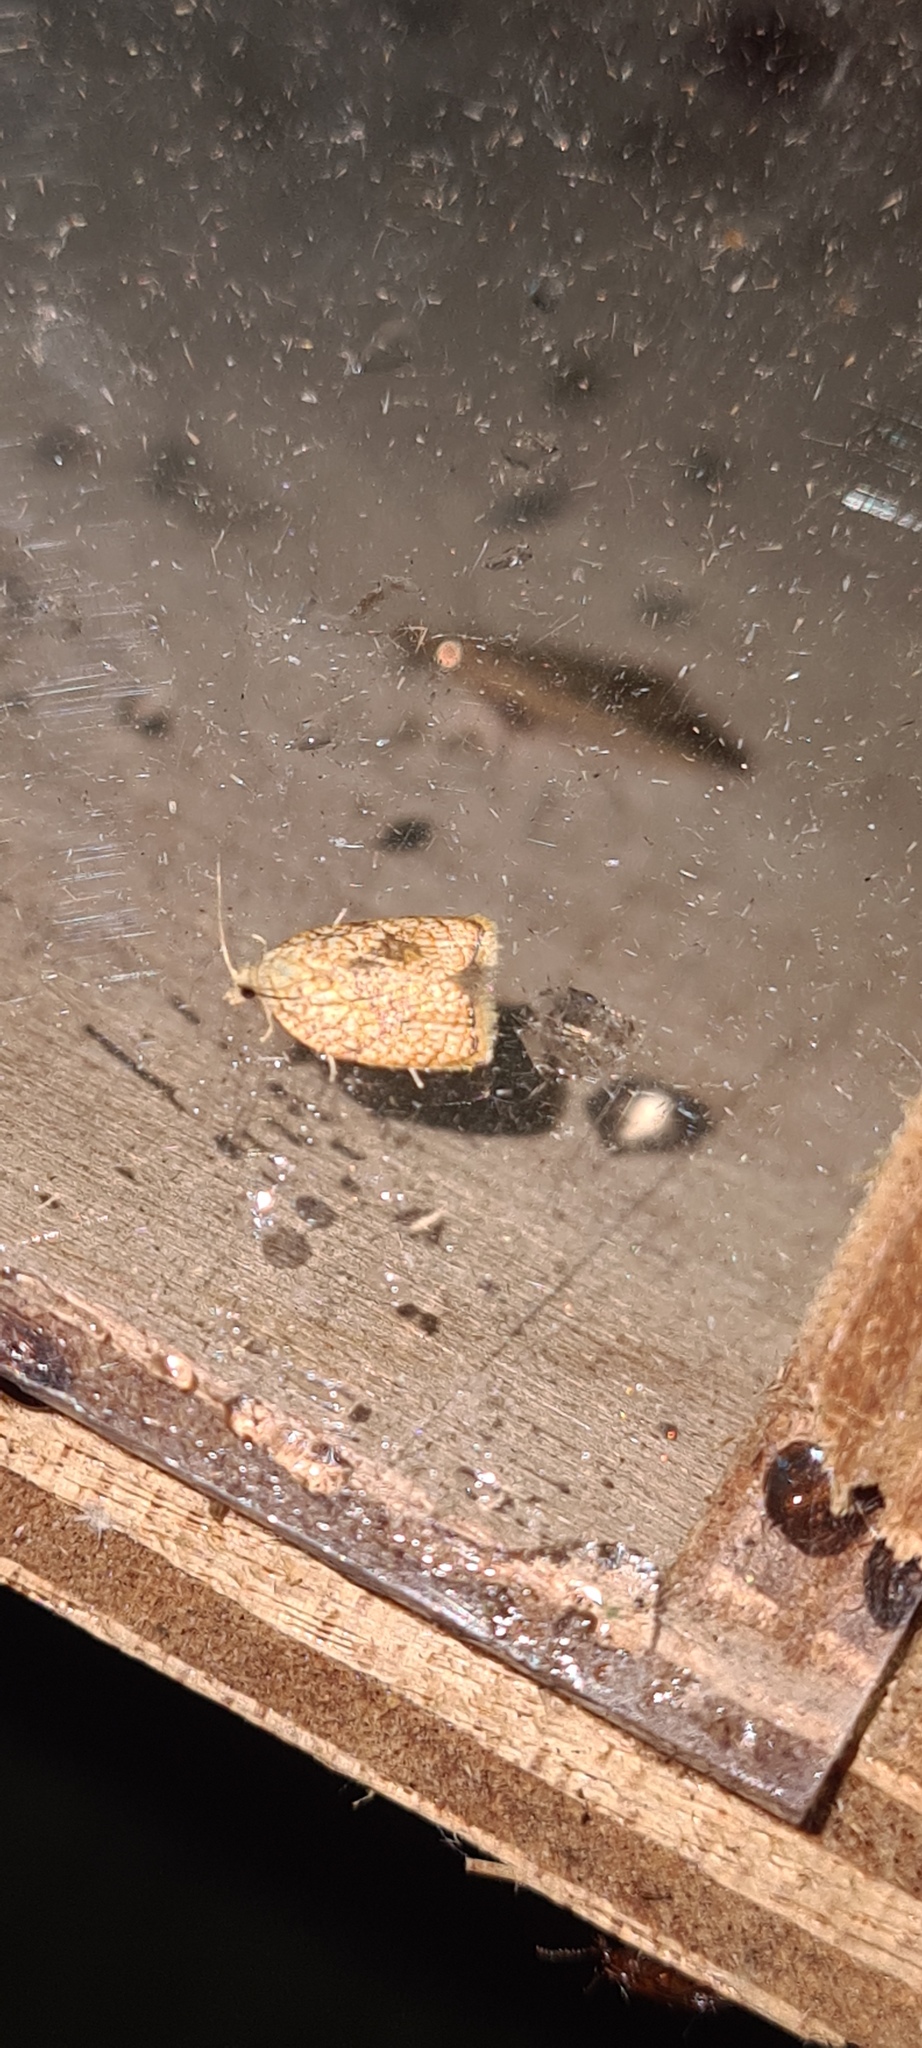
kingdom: Animalia
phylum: Arthropoda
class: Insecta
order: Lepidoptera
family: Tortricidae
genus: Acleris
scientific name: Acleris forsskaleana
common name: Maple button
